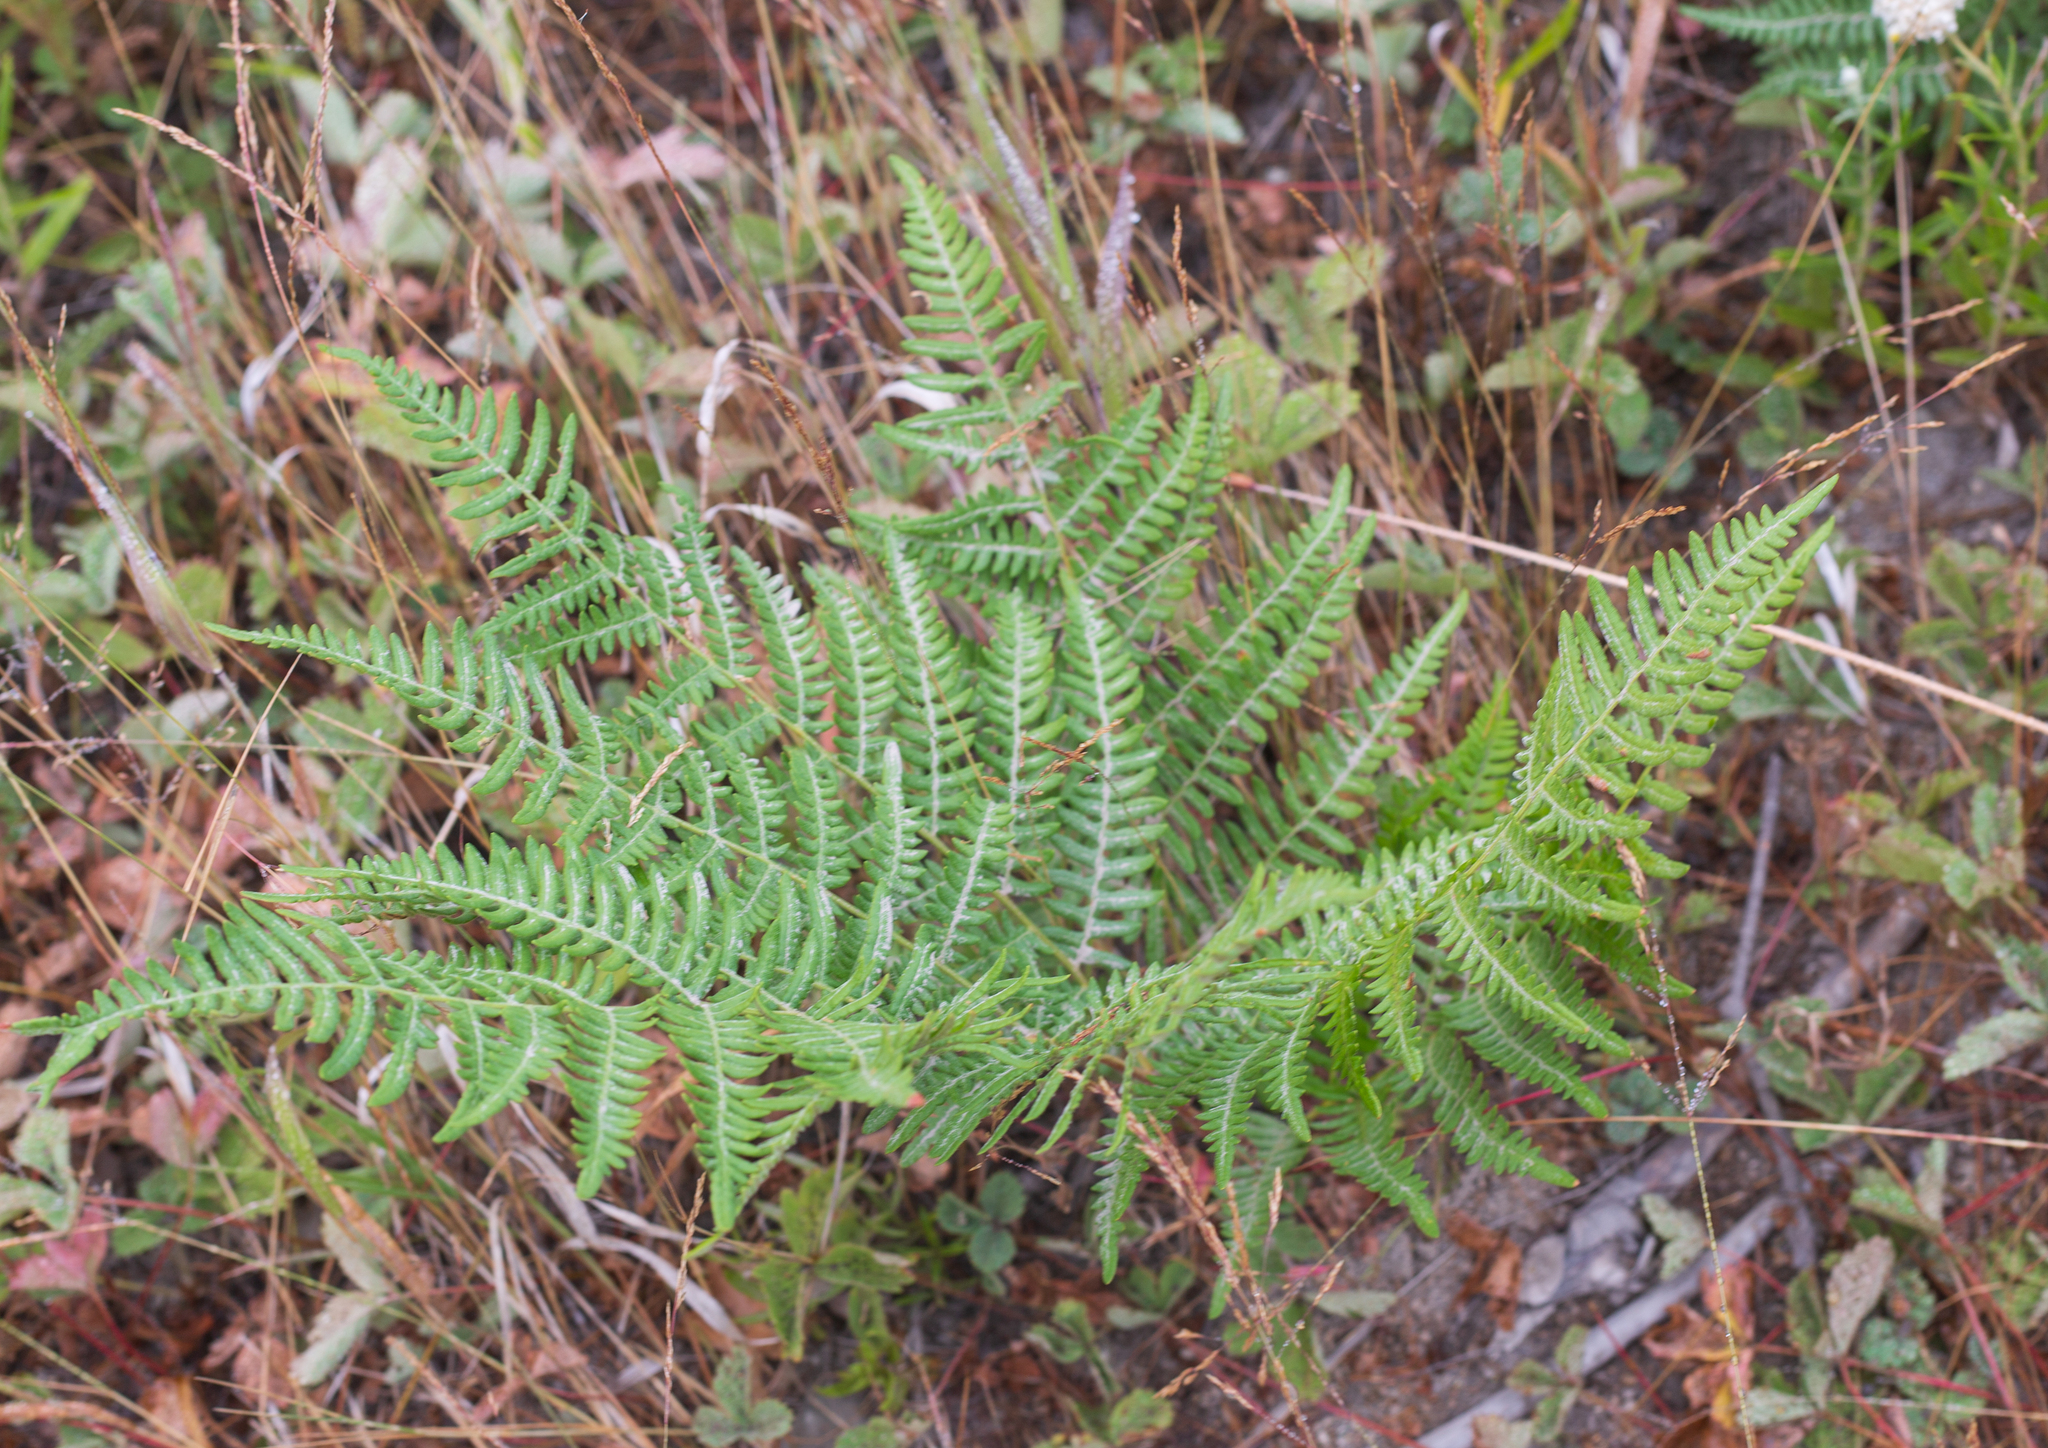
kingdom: Plantae
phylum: Tracheophyta
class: Polypodiopsida
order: Polypodiales
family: Dennstaedtiaceae
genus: Pteridium
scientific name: Pteridium aquilinum
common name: Bracken
